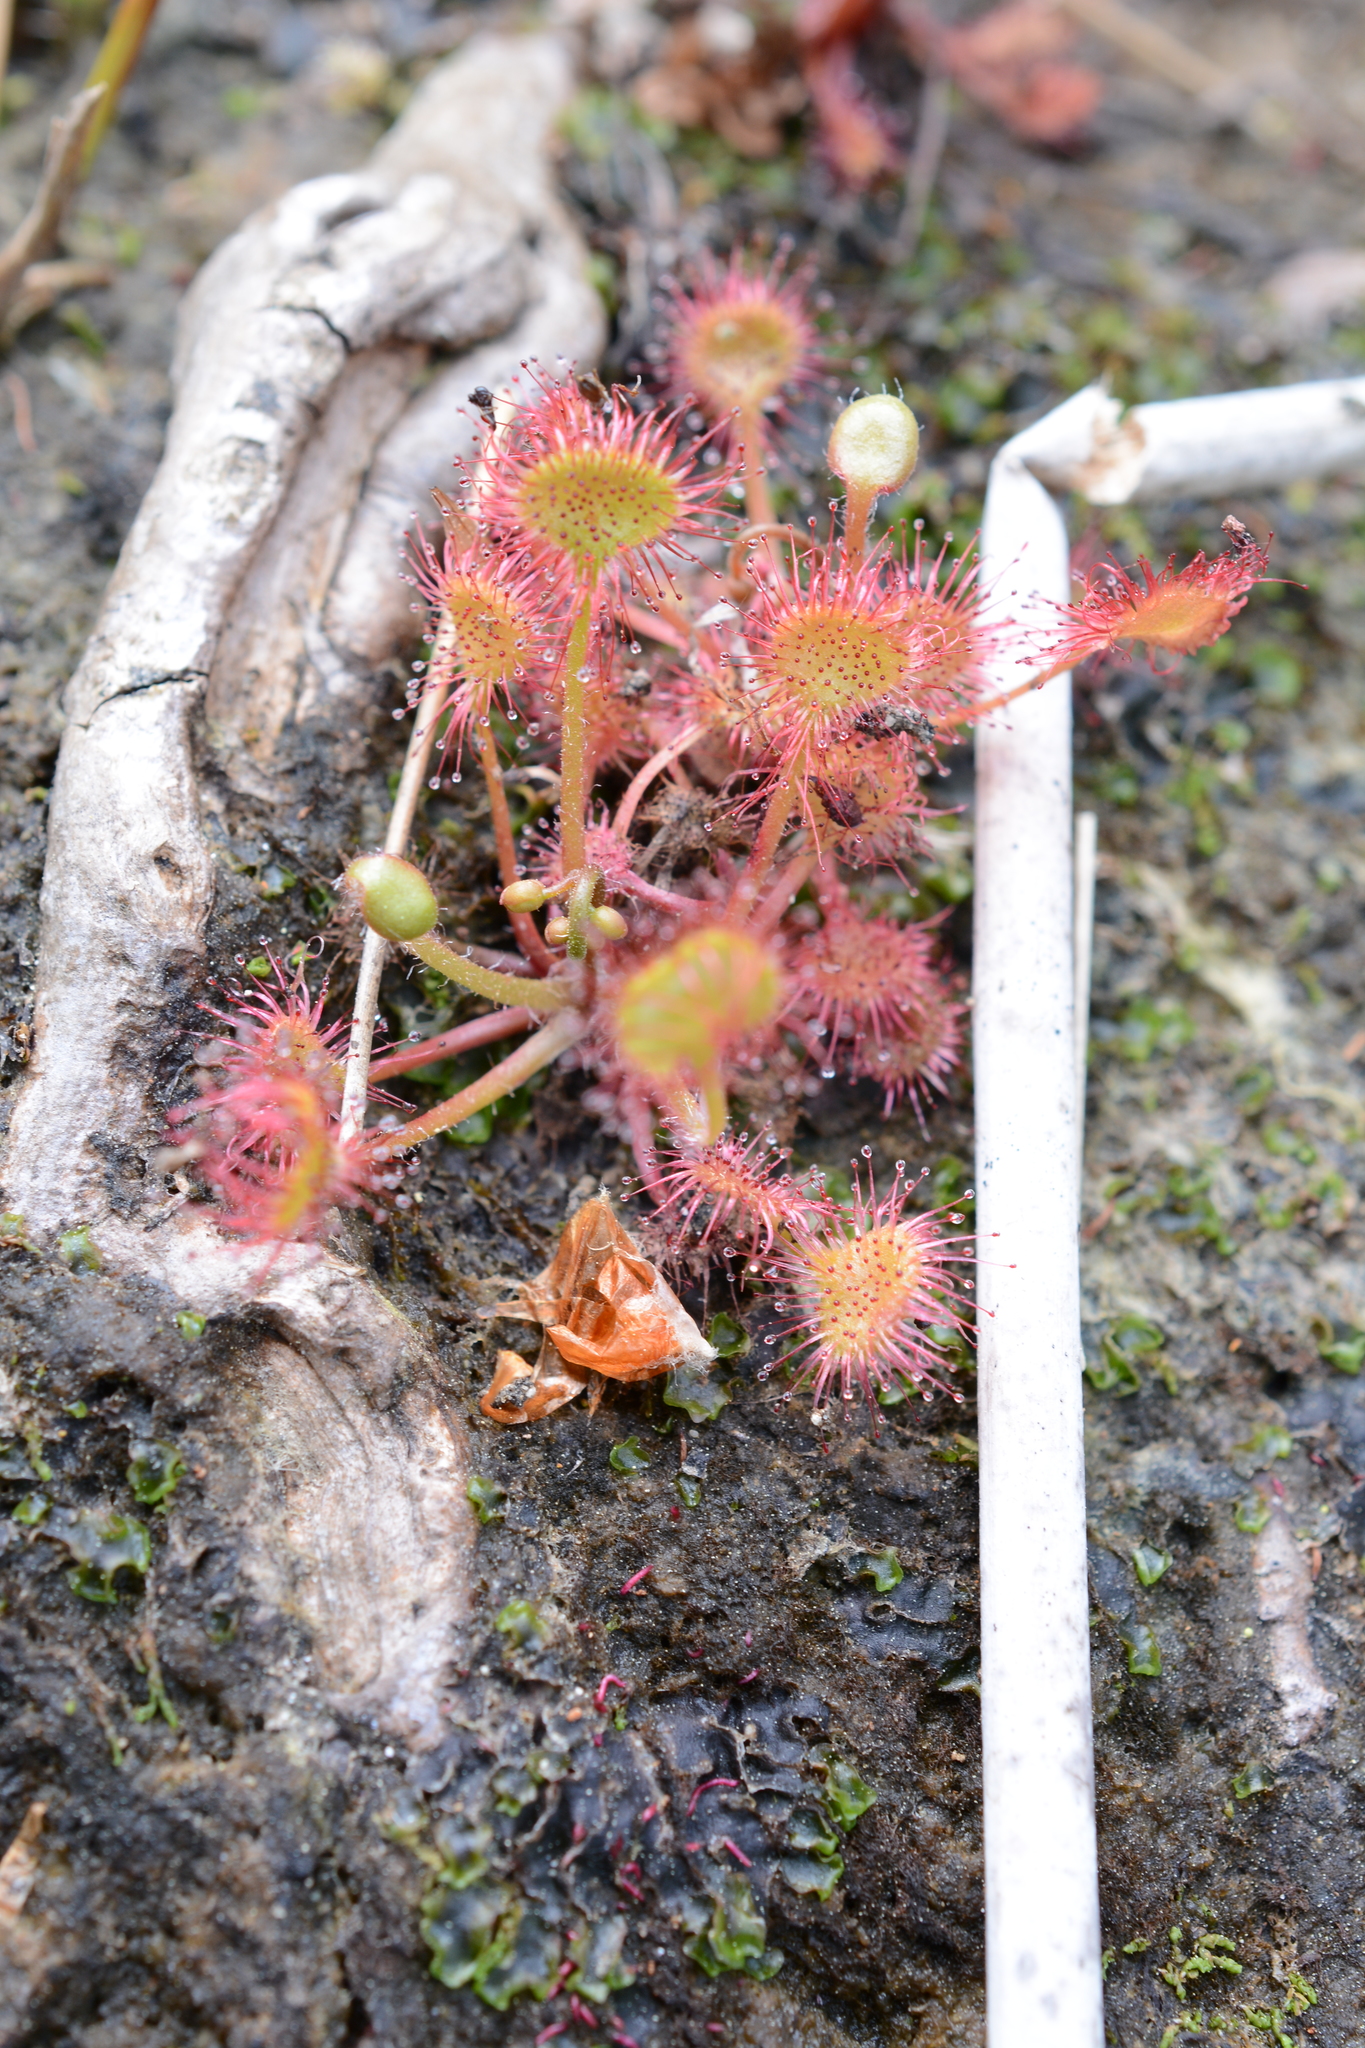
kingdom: Plantae
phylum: Tracheophyta
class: Magnoliopsida
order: Caryophyllales
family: Droseraceae
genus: Drosera
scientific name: Drosera rotundifolia
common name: Round-leaved sundew
